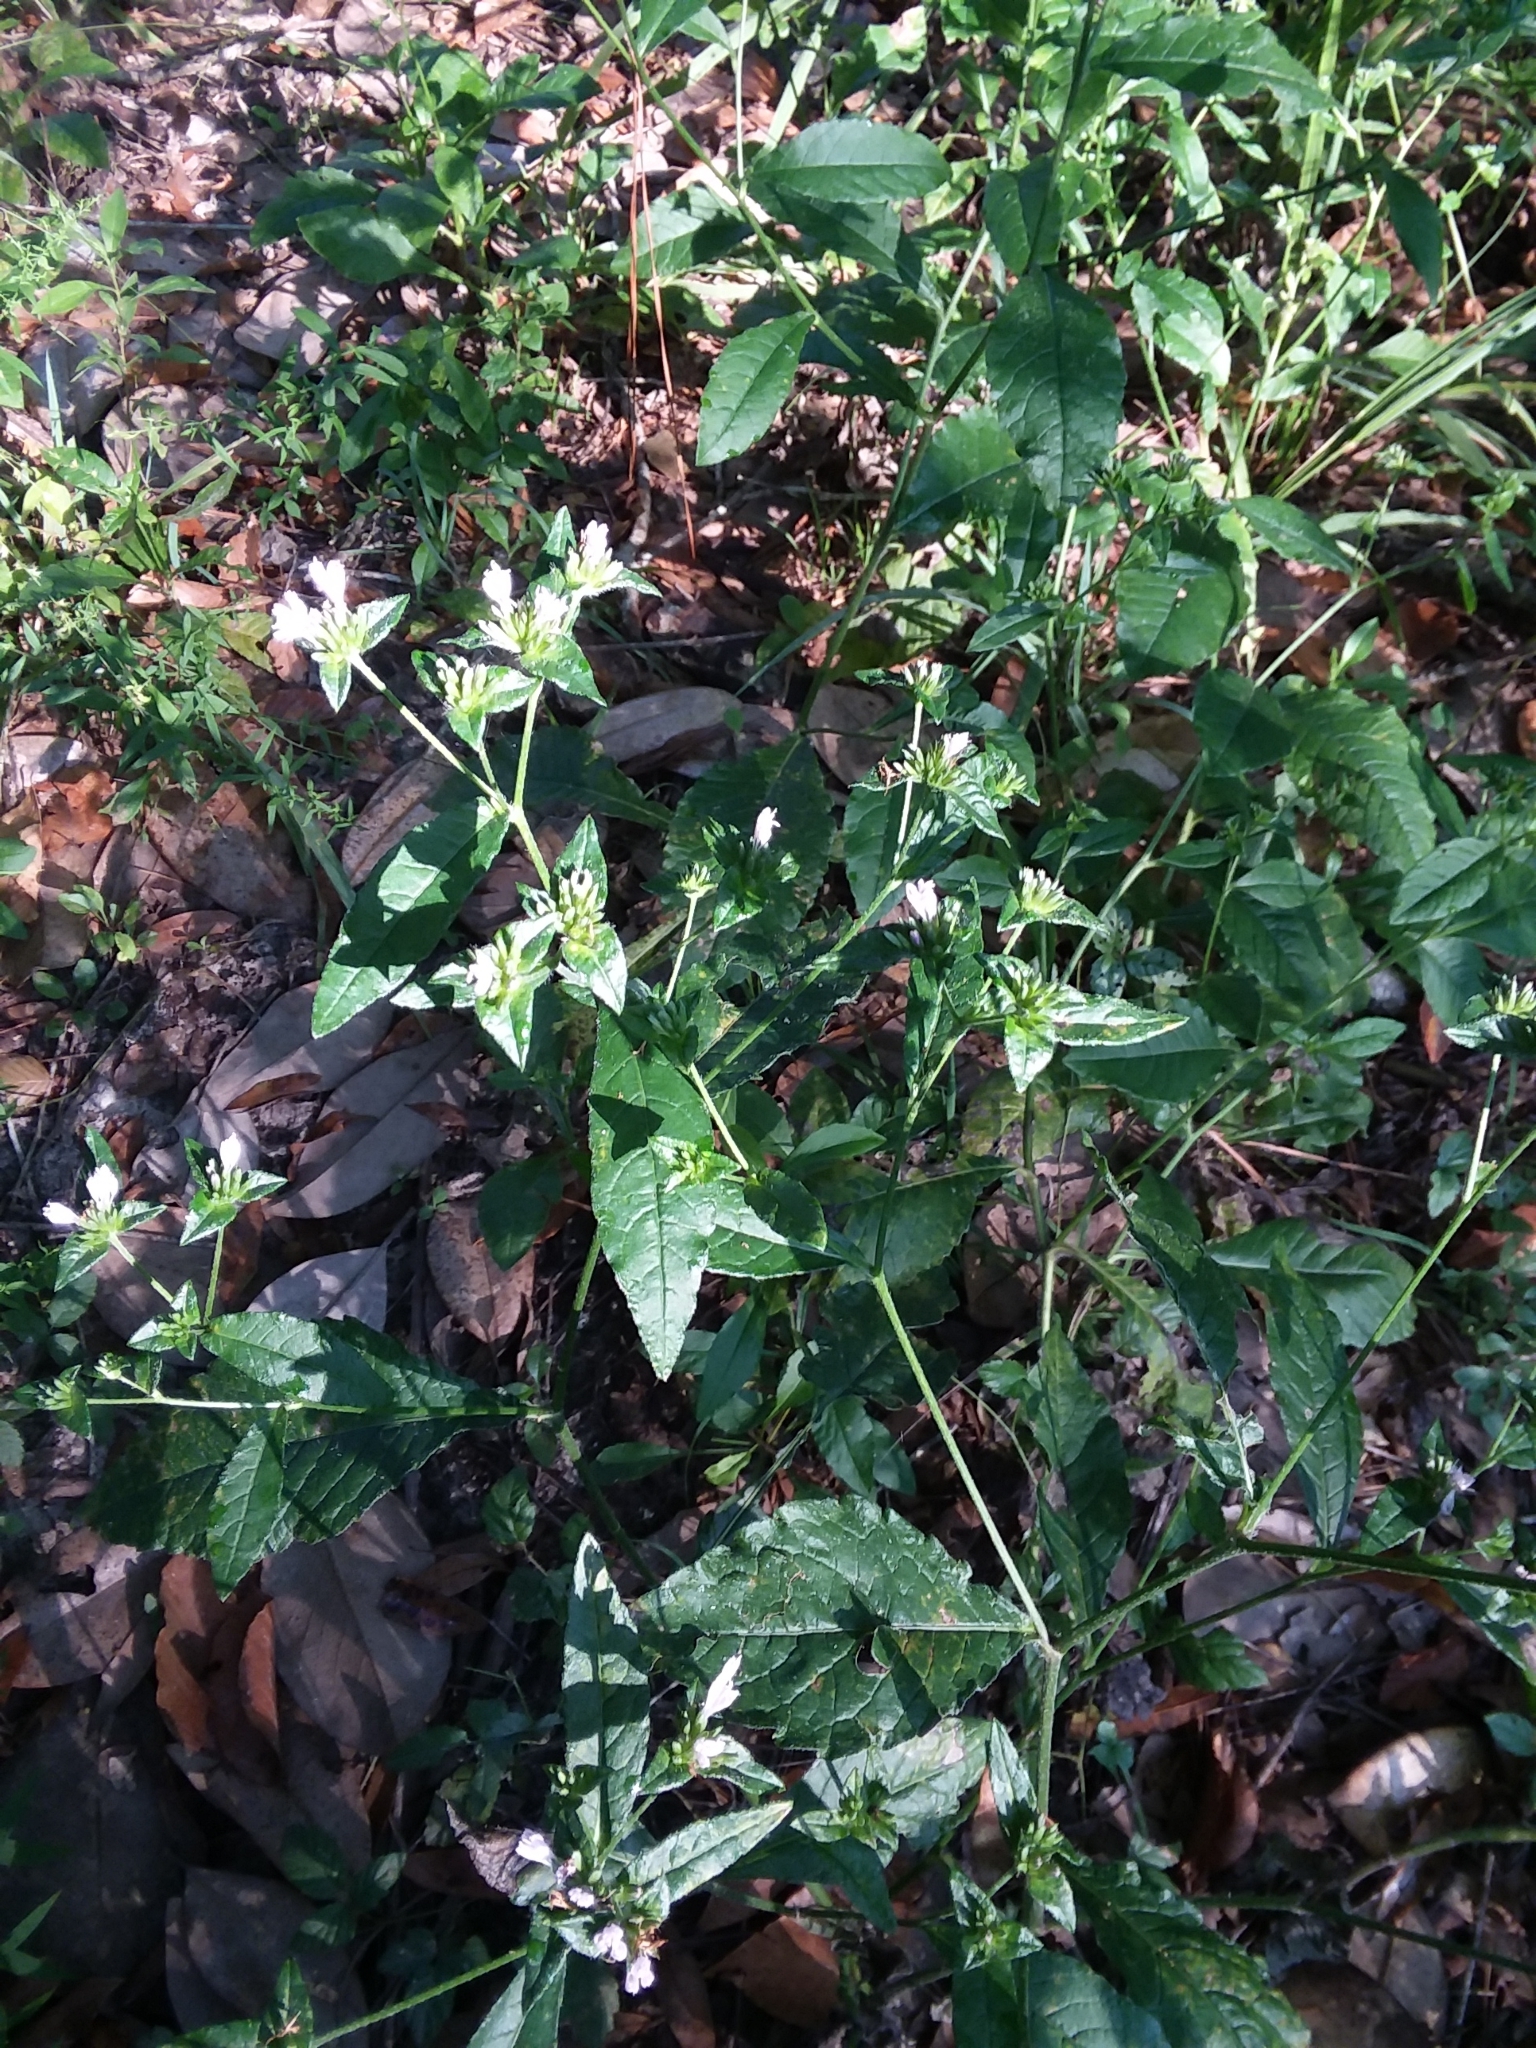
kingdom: Plantae
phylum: Tracheophyta
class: Magnoliopsida
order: Asterales
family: Asteraceae
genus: Elephantopus
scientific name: Elephantopus carolinianus
